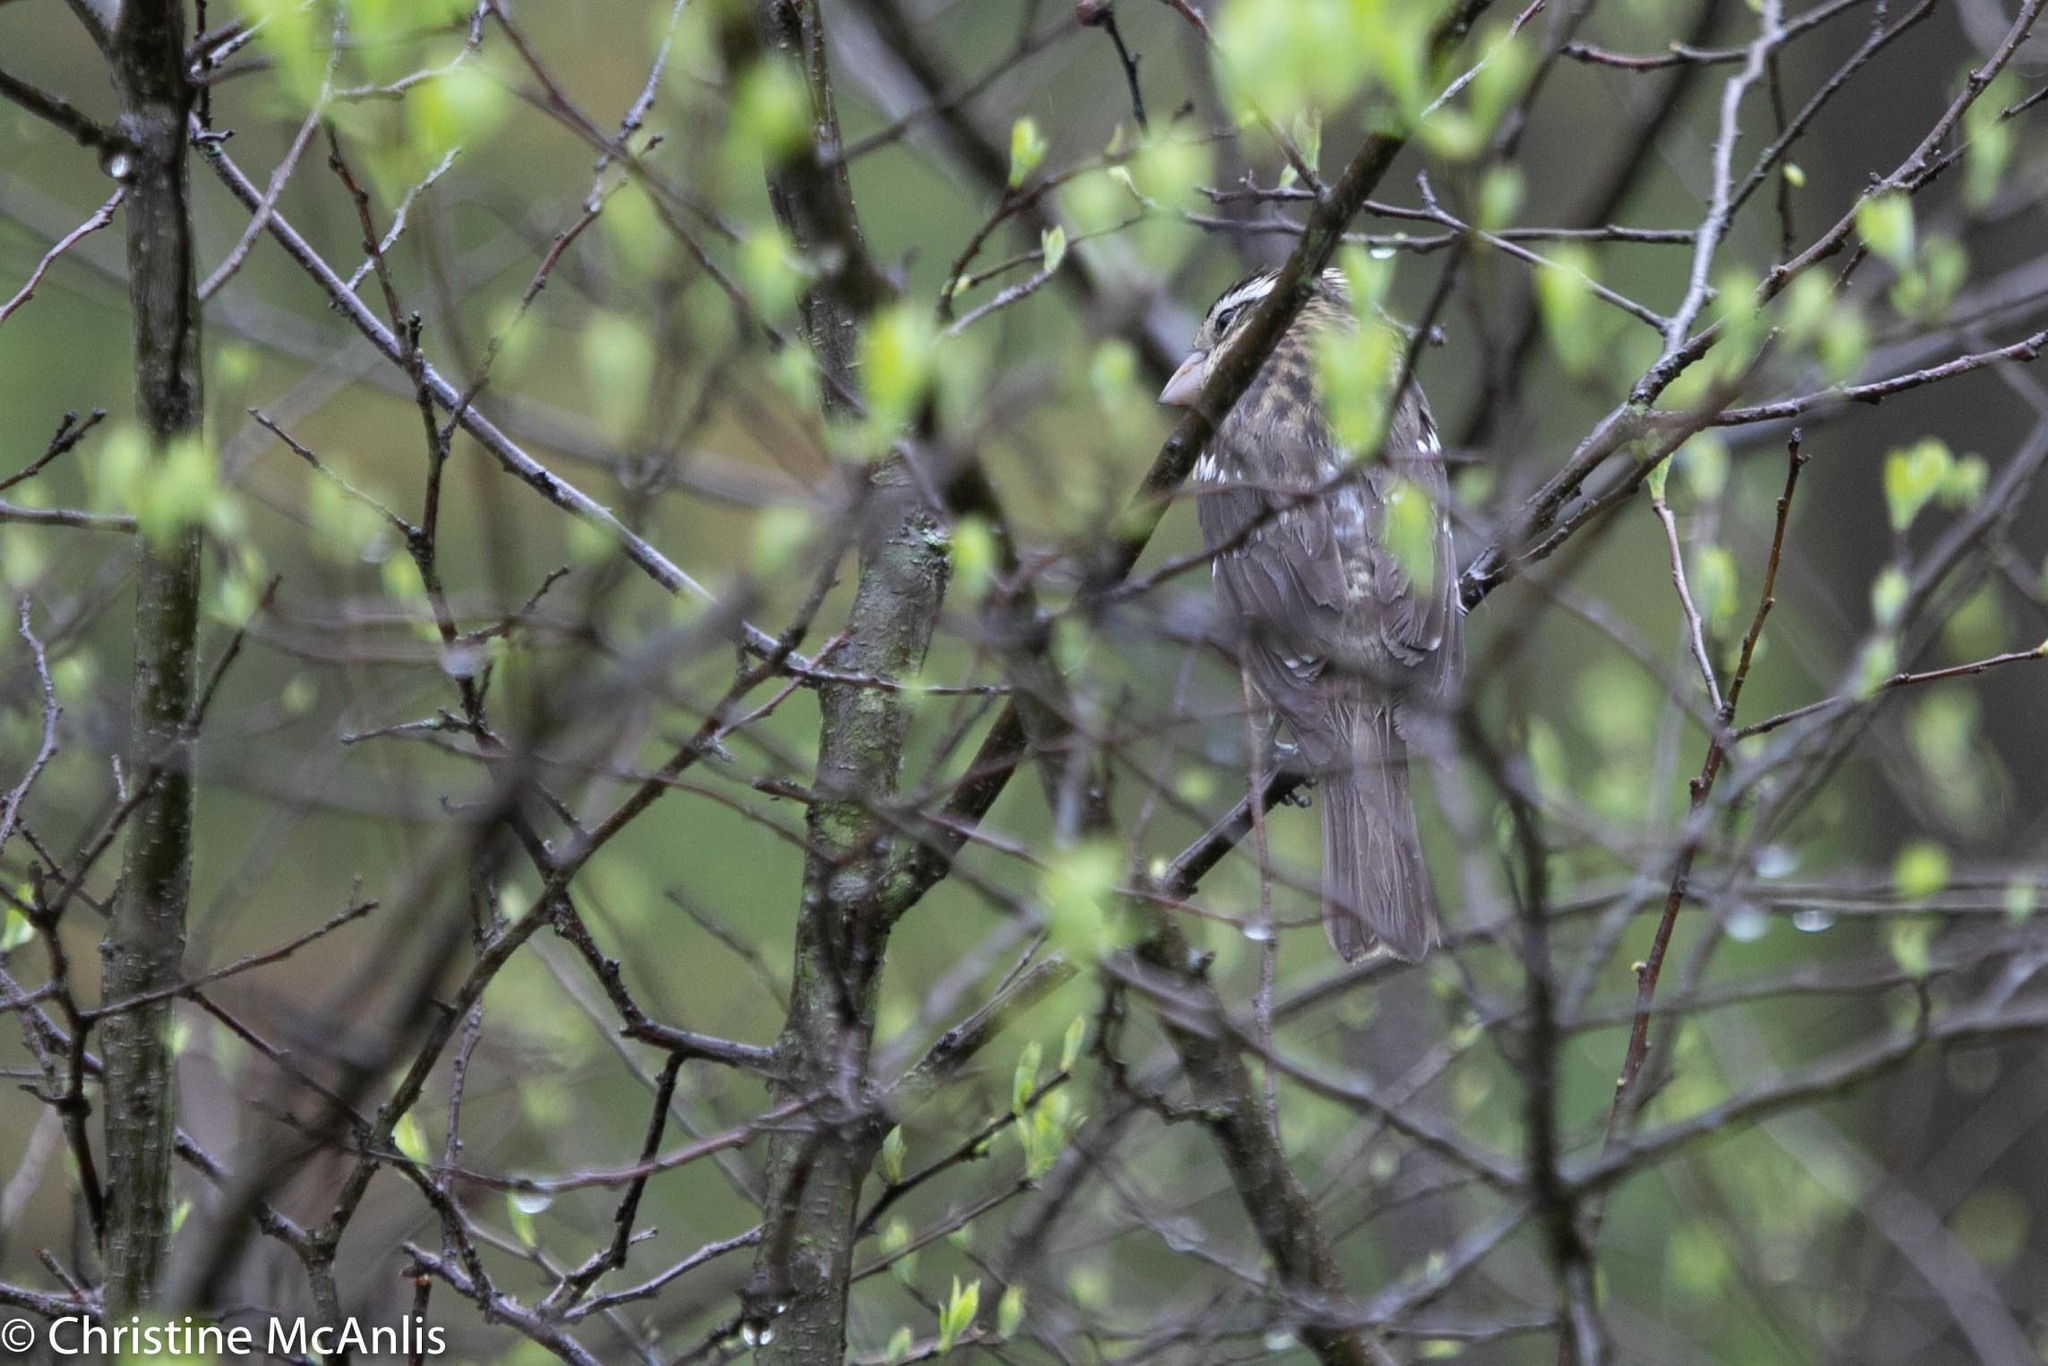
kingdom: Animalia
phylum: Chordata
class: Aves
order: Passeriformes
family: Cardinalidae
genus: Pheucticus
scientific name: Pheucticus ludovicianus
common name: Rose-breasted grosbeak
